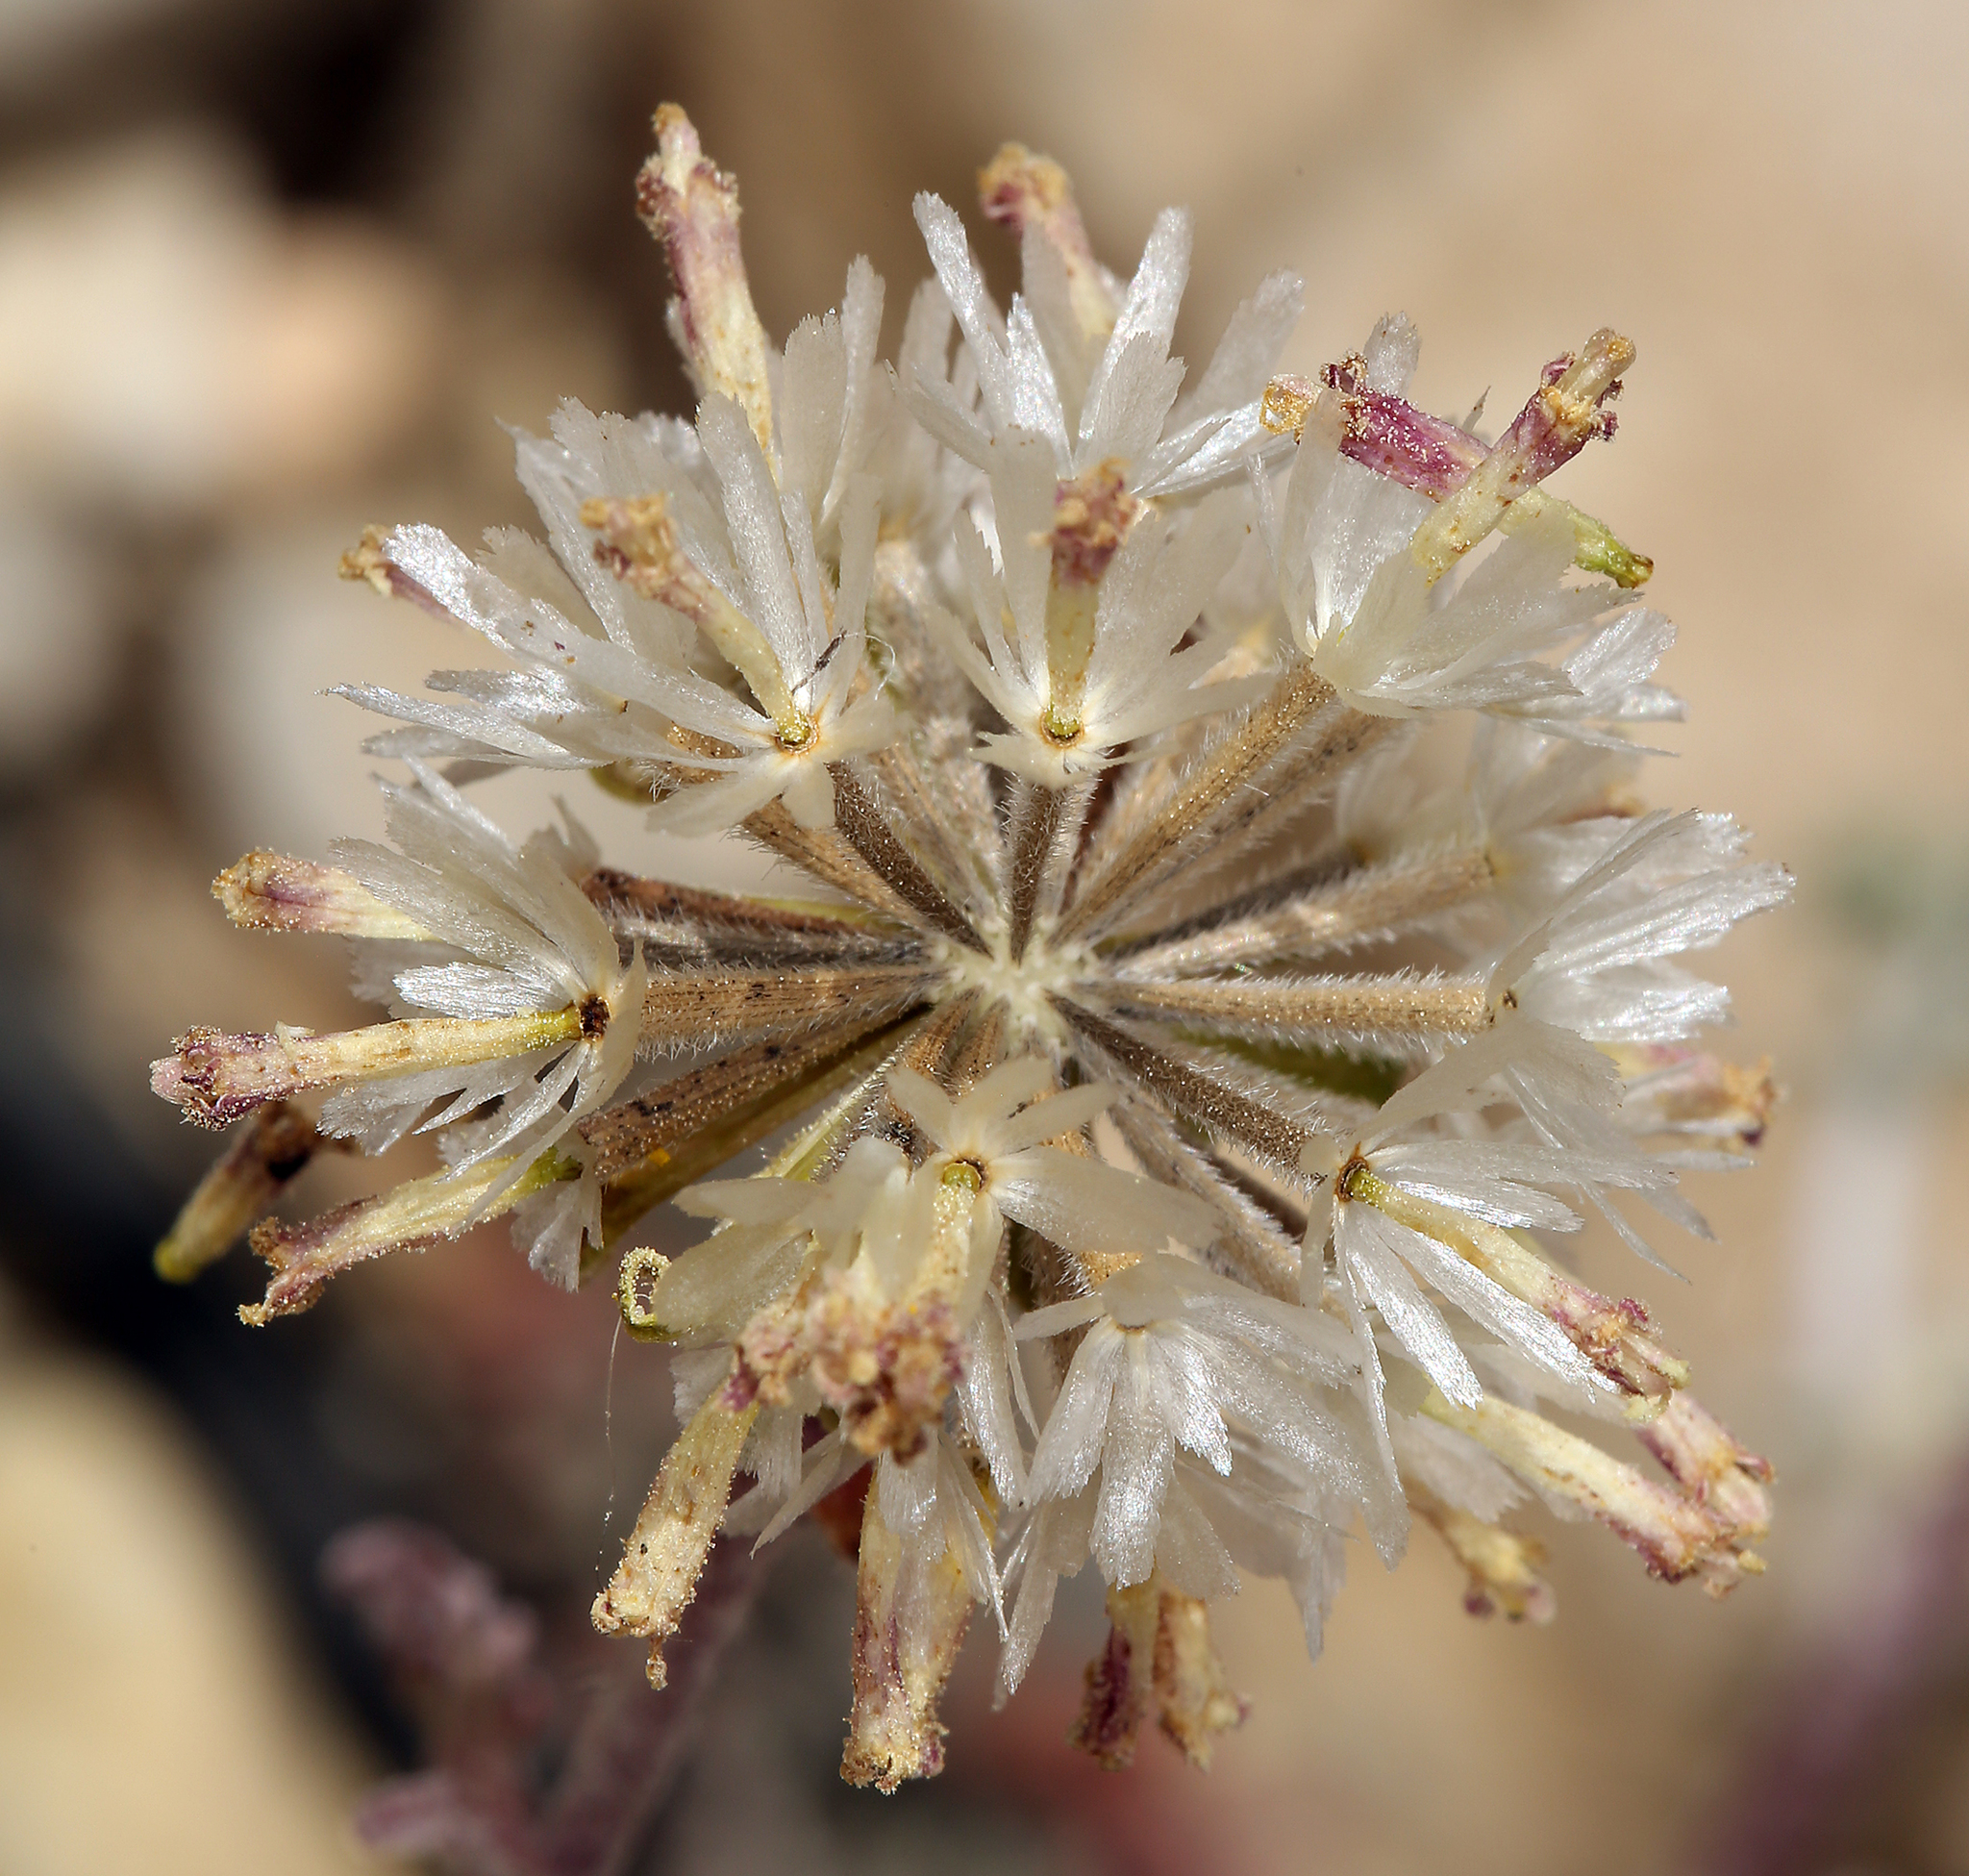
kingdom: Plantae
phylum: Tracheophyta
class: Magnoliopsida
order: Asterales
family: Asteraceae
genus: Chaenactis
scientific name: Chaenactis douglasii
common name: Hoary pincushion
